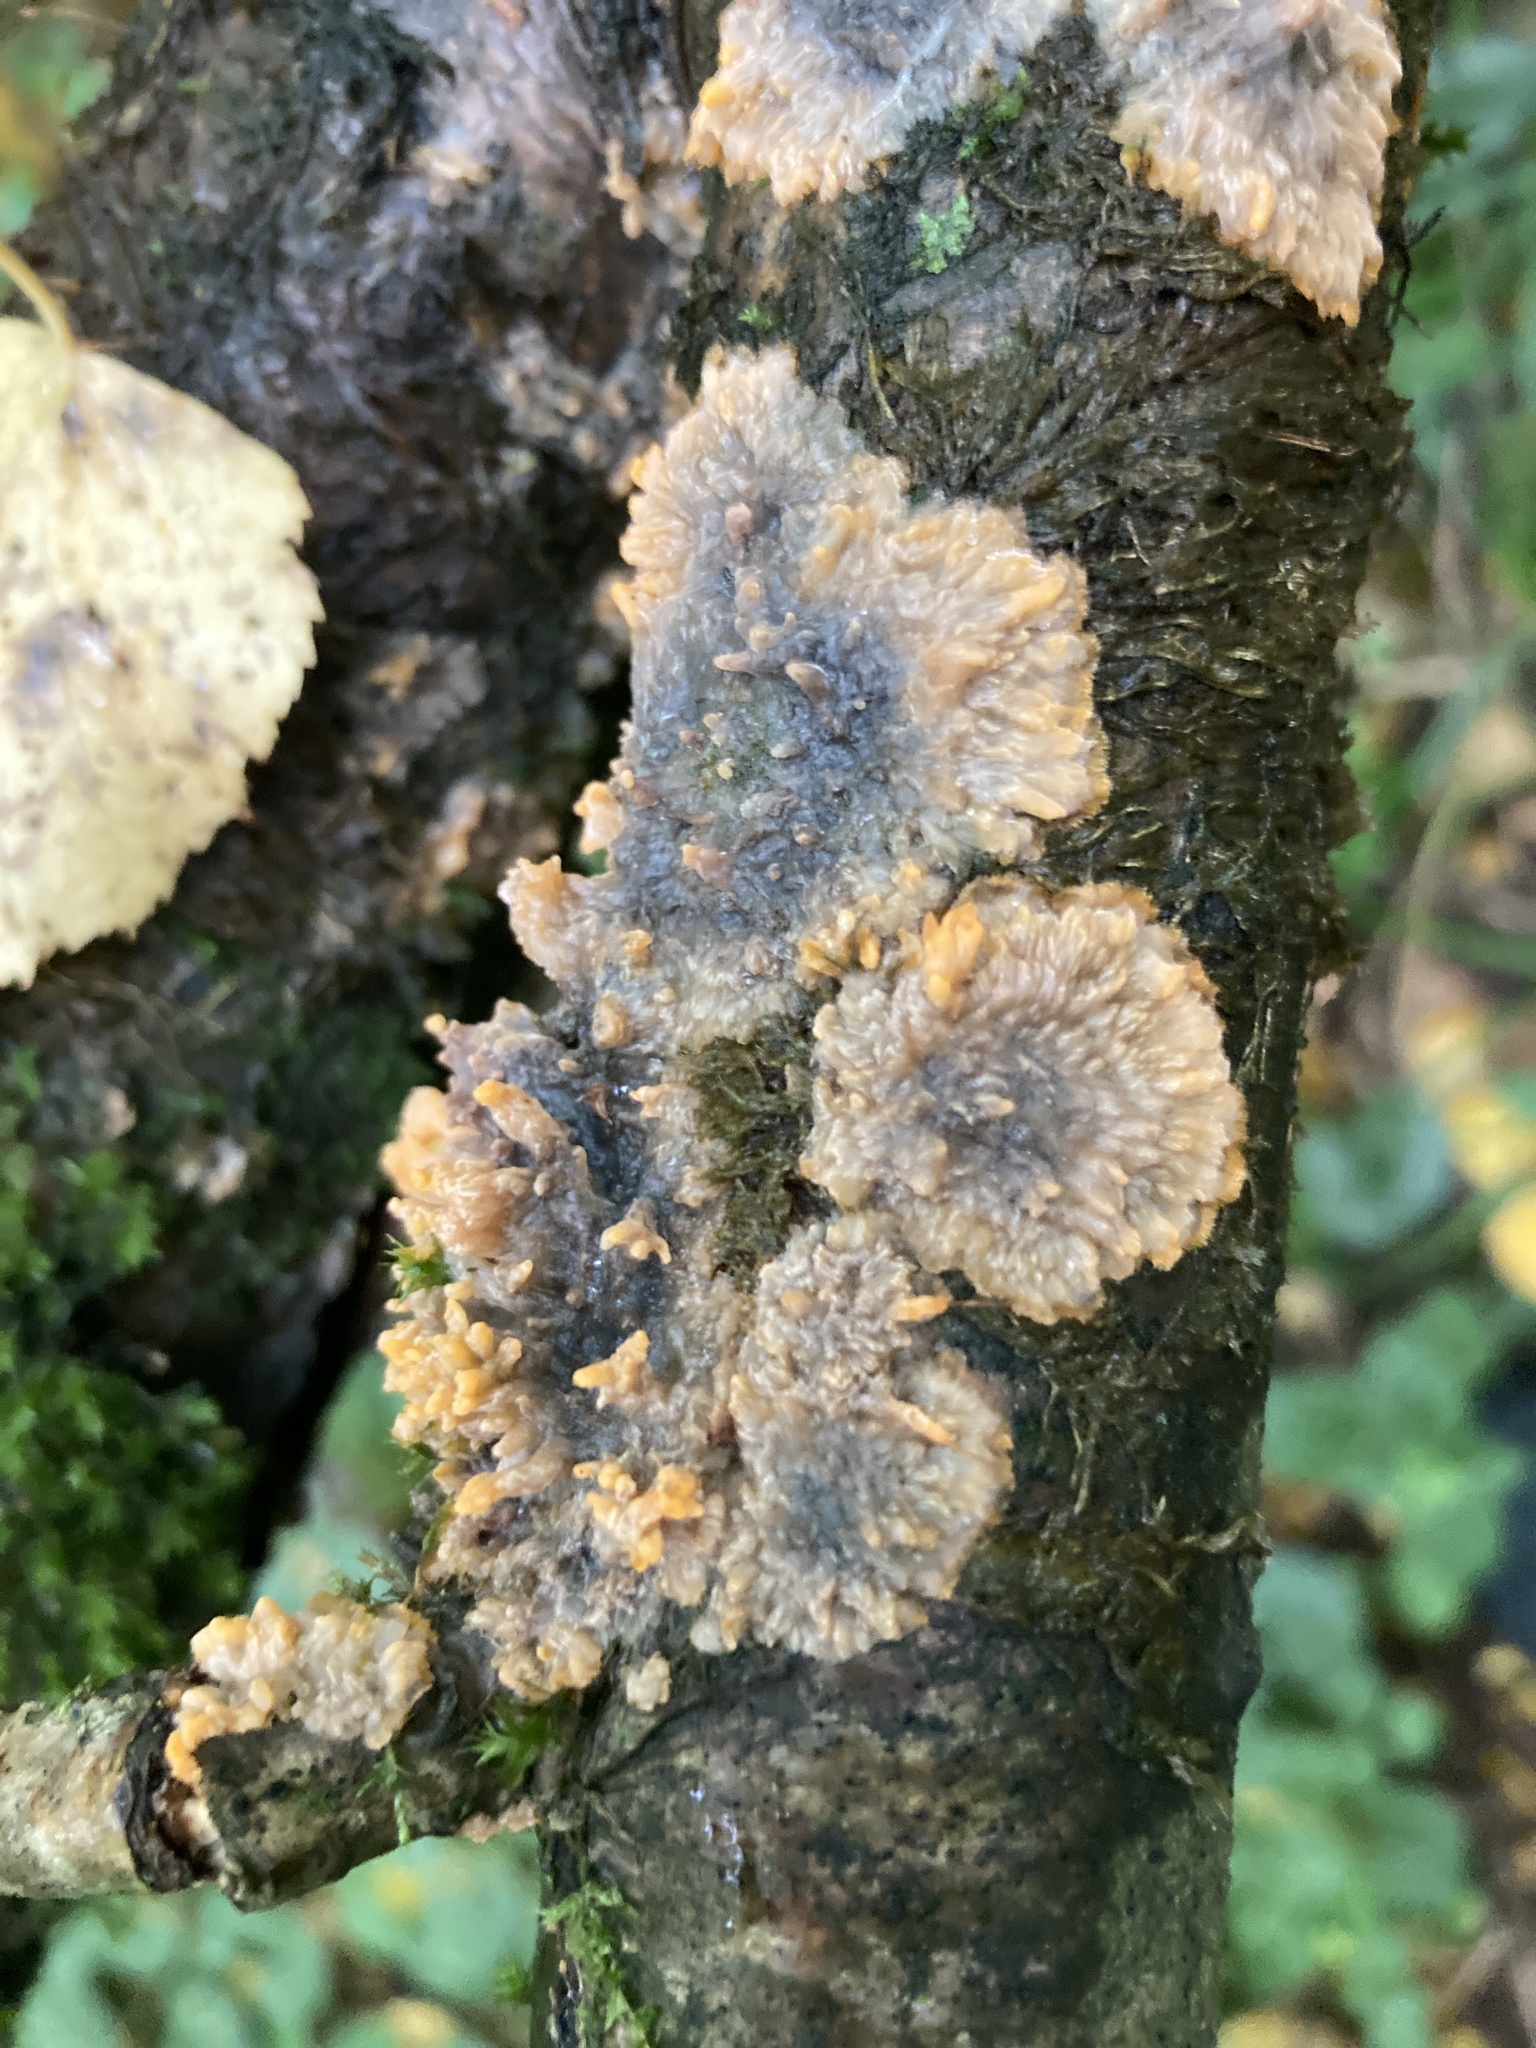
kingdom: Fungi
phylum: Basidiomycota
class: Agaricomycetes
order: Polyporales
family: Meruliaceae
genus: Phlebia
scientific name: Phlebia radiata
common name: Wrinkled crust
